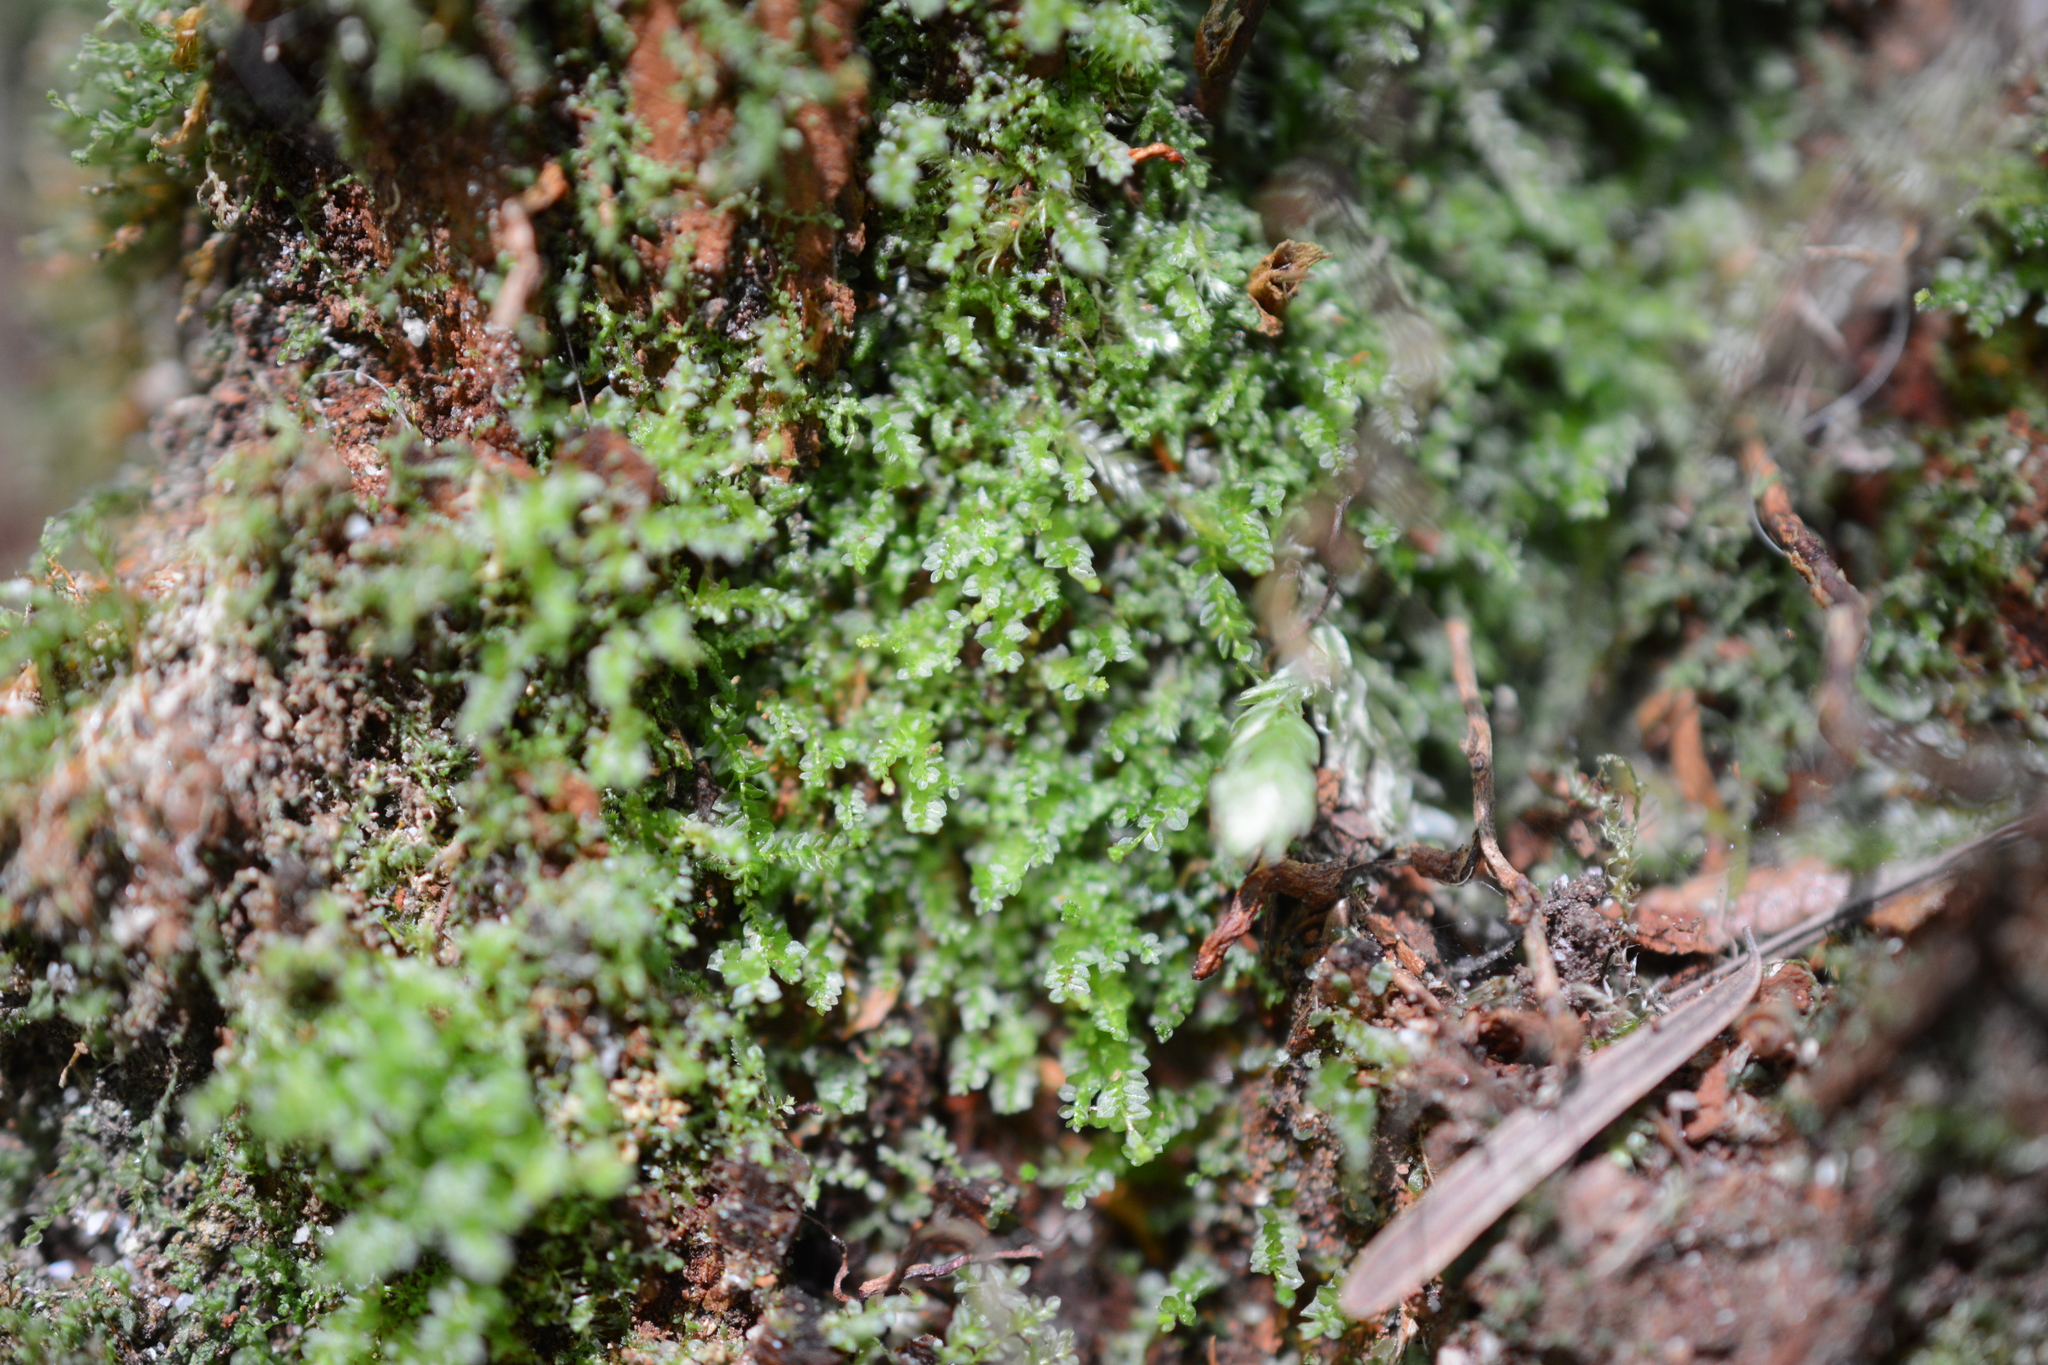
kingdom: Plantae
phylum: Bryophyta
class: Polytrichopsida
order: Tetraphidales
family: Tetraphidaceae
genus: Tetraphis
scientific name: Tetraphis pellucida
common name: Common four-toothed moss
